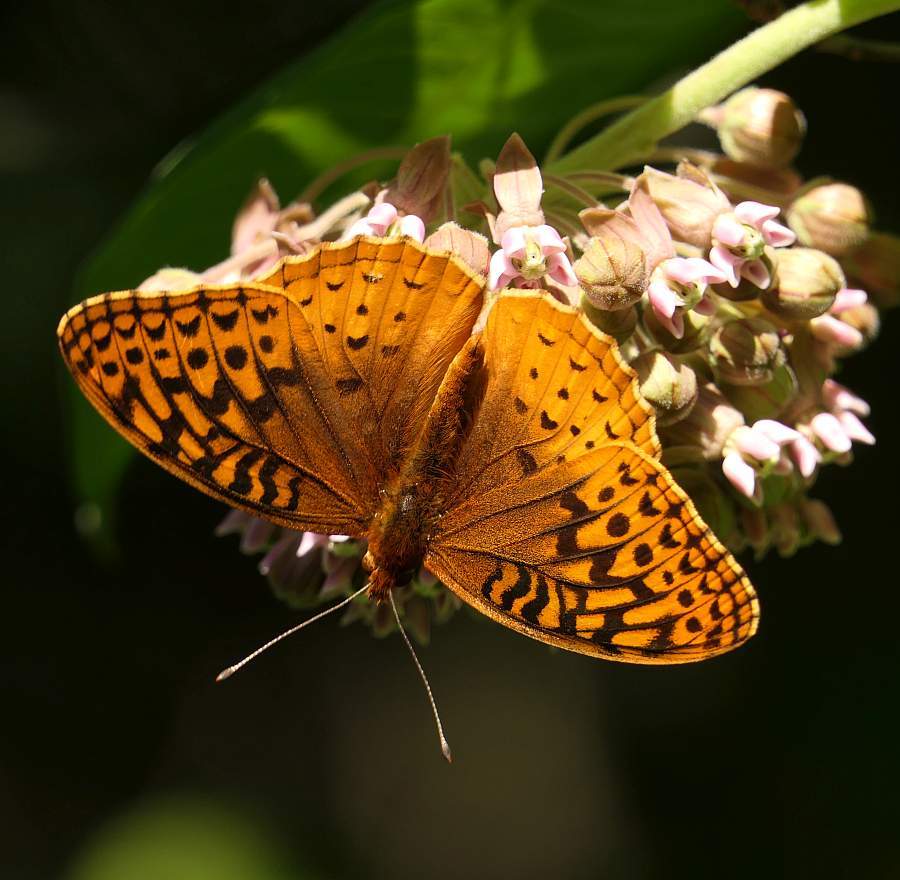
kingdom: Animalia
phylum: Arthropoda
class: Insecta
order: Lepidoptera
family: Nymphalidae
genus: Speyeria
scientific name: Speyeria cybele
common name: Great spangled fritillary
